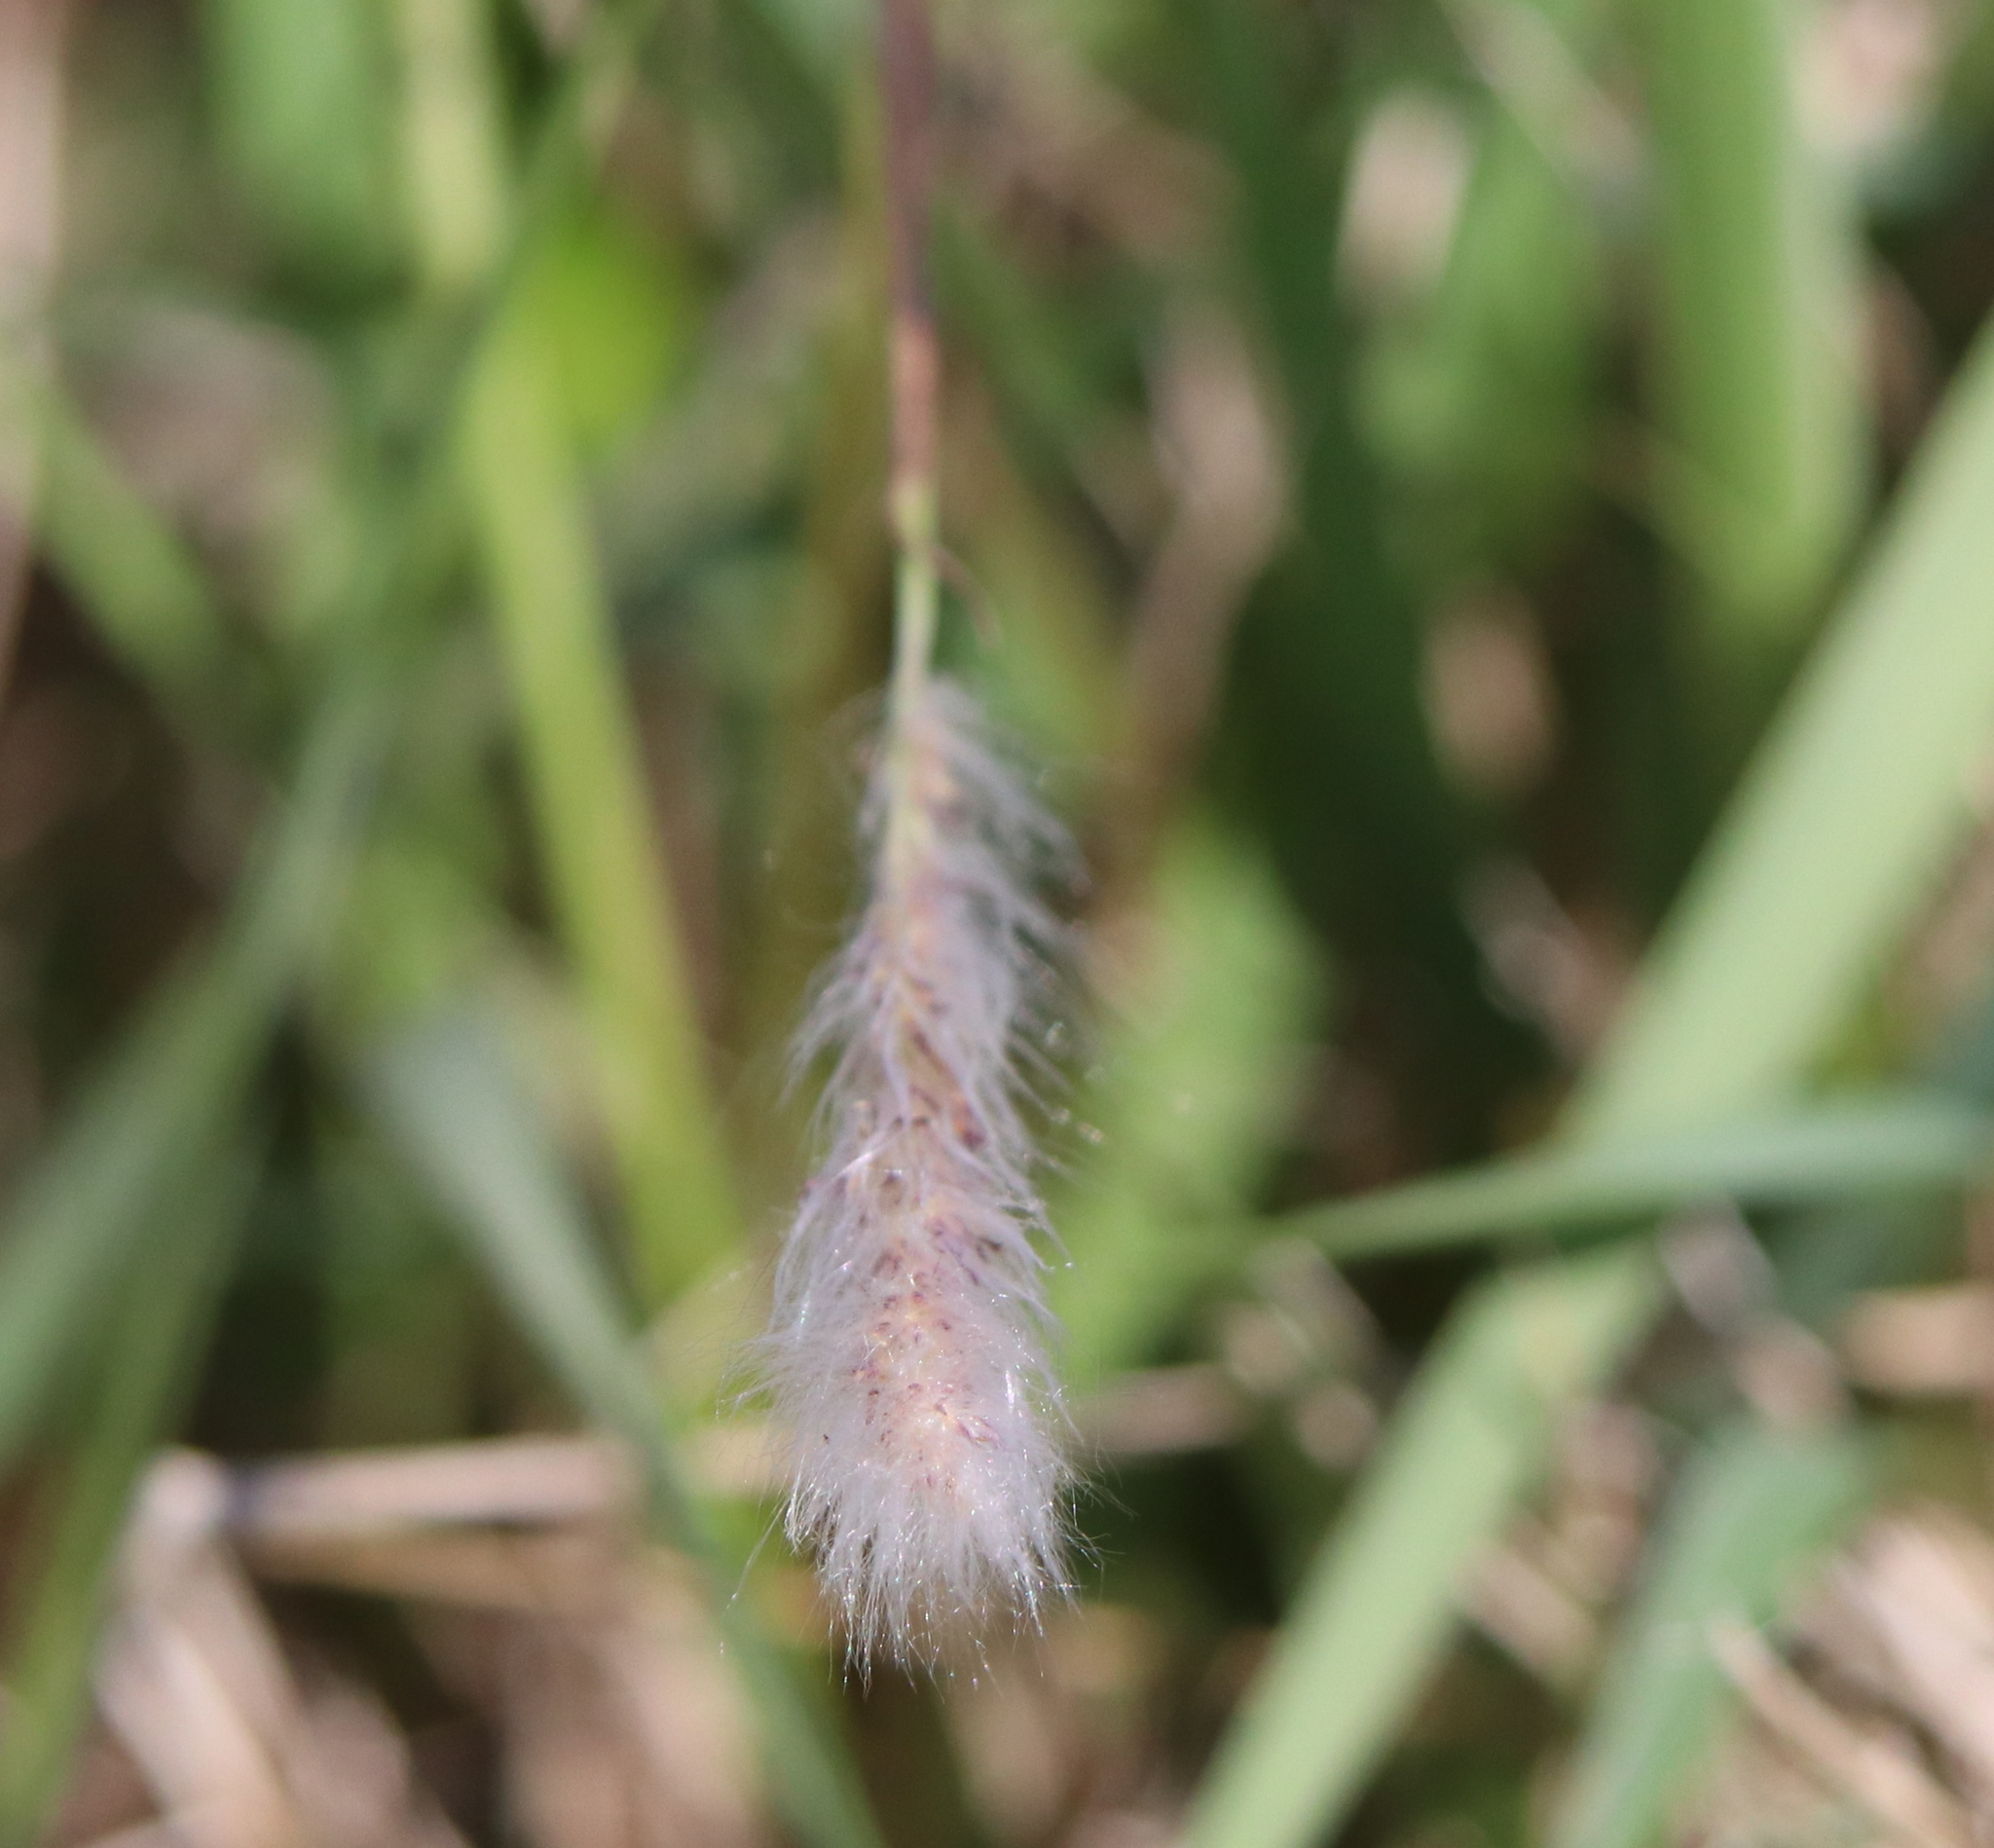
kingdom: Plantae
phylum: Tracheophyta
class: Liliopsida
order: Poales
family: Poaceae
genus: Imperata
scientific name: Imperata cylindrica
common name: Cogongrass
